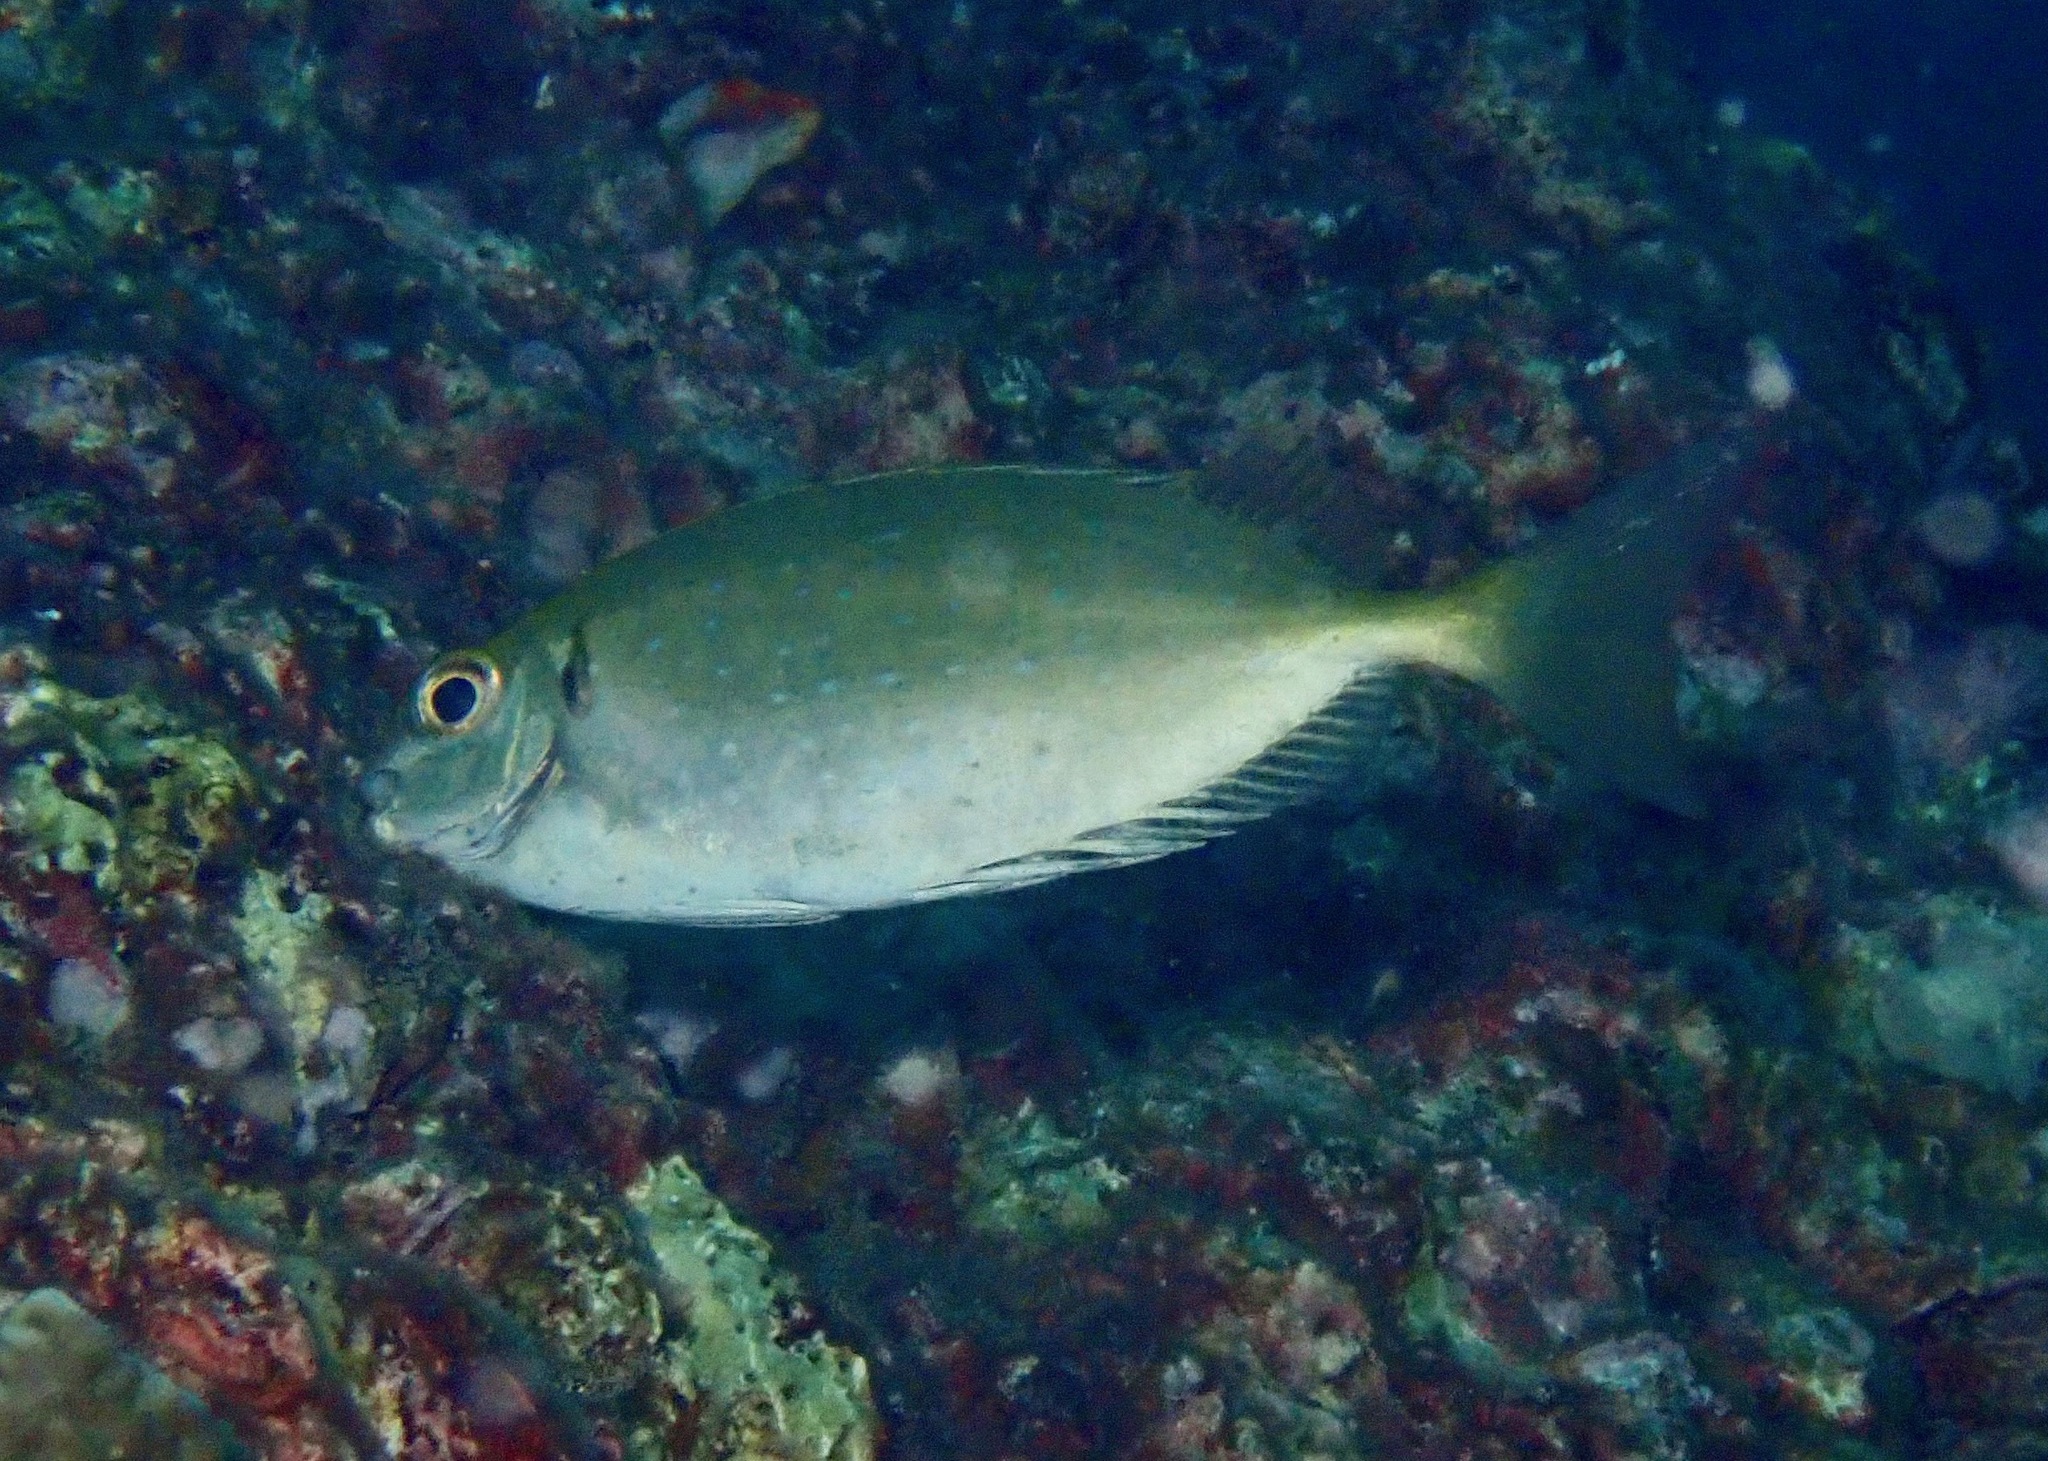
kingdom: Animalia
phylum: Chordata
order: Perciformes
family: Siganidae
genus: Siganus
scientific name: Siganus sutor
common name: Shoemaker spinefoot
